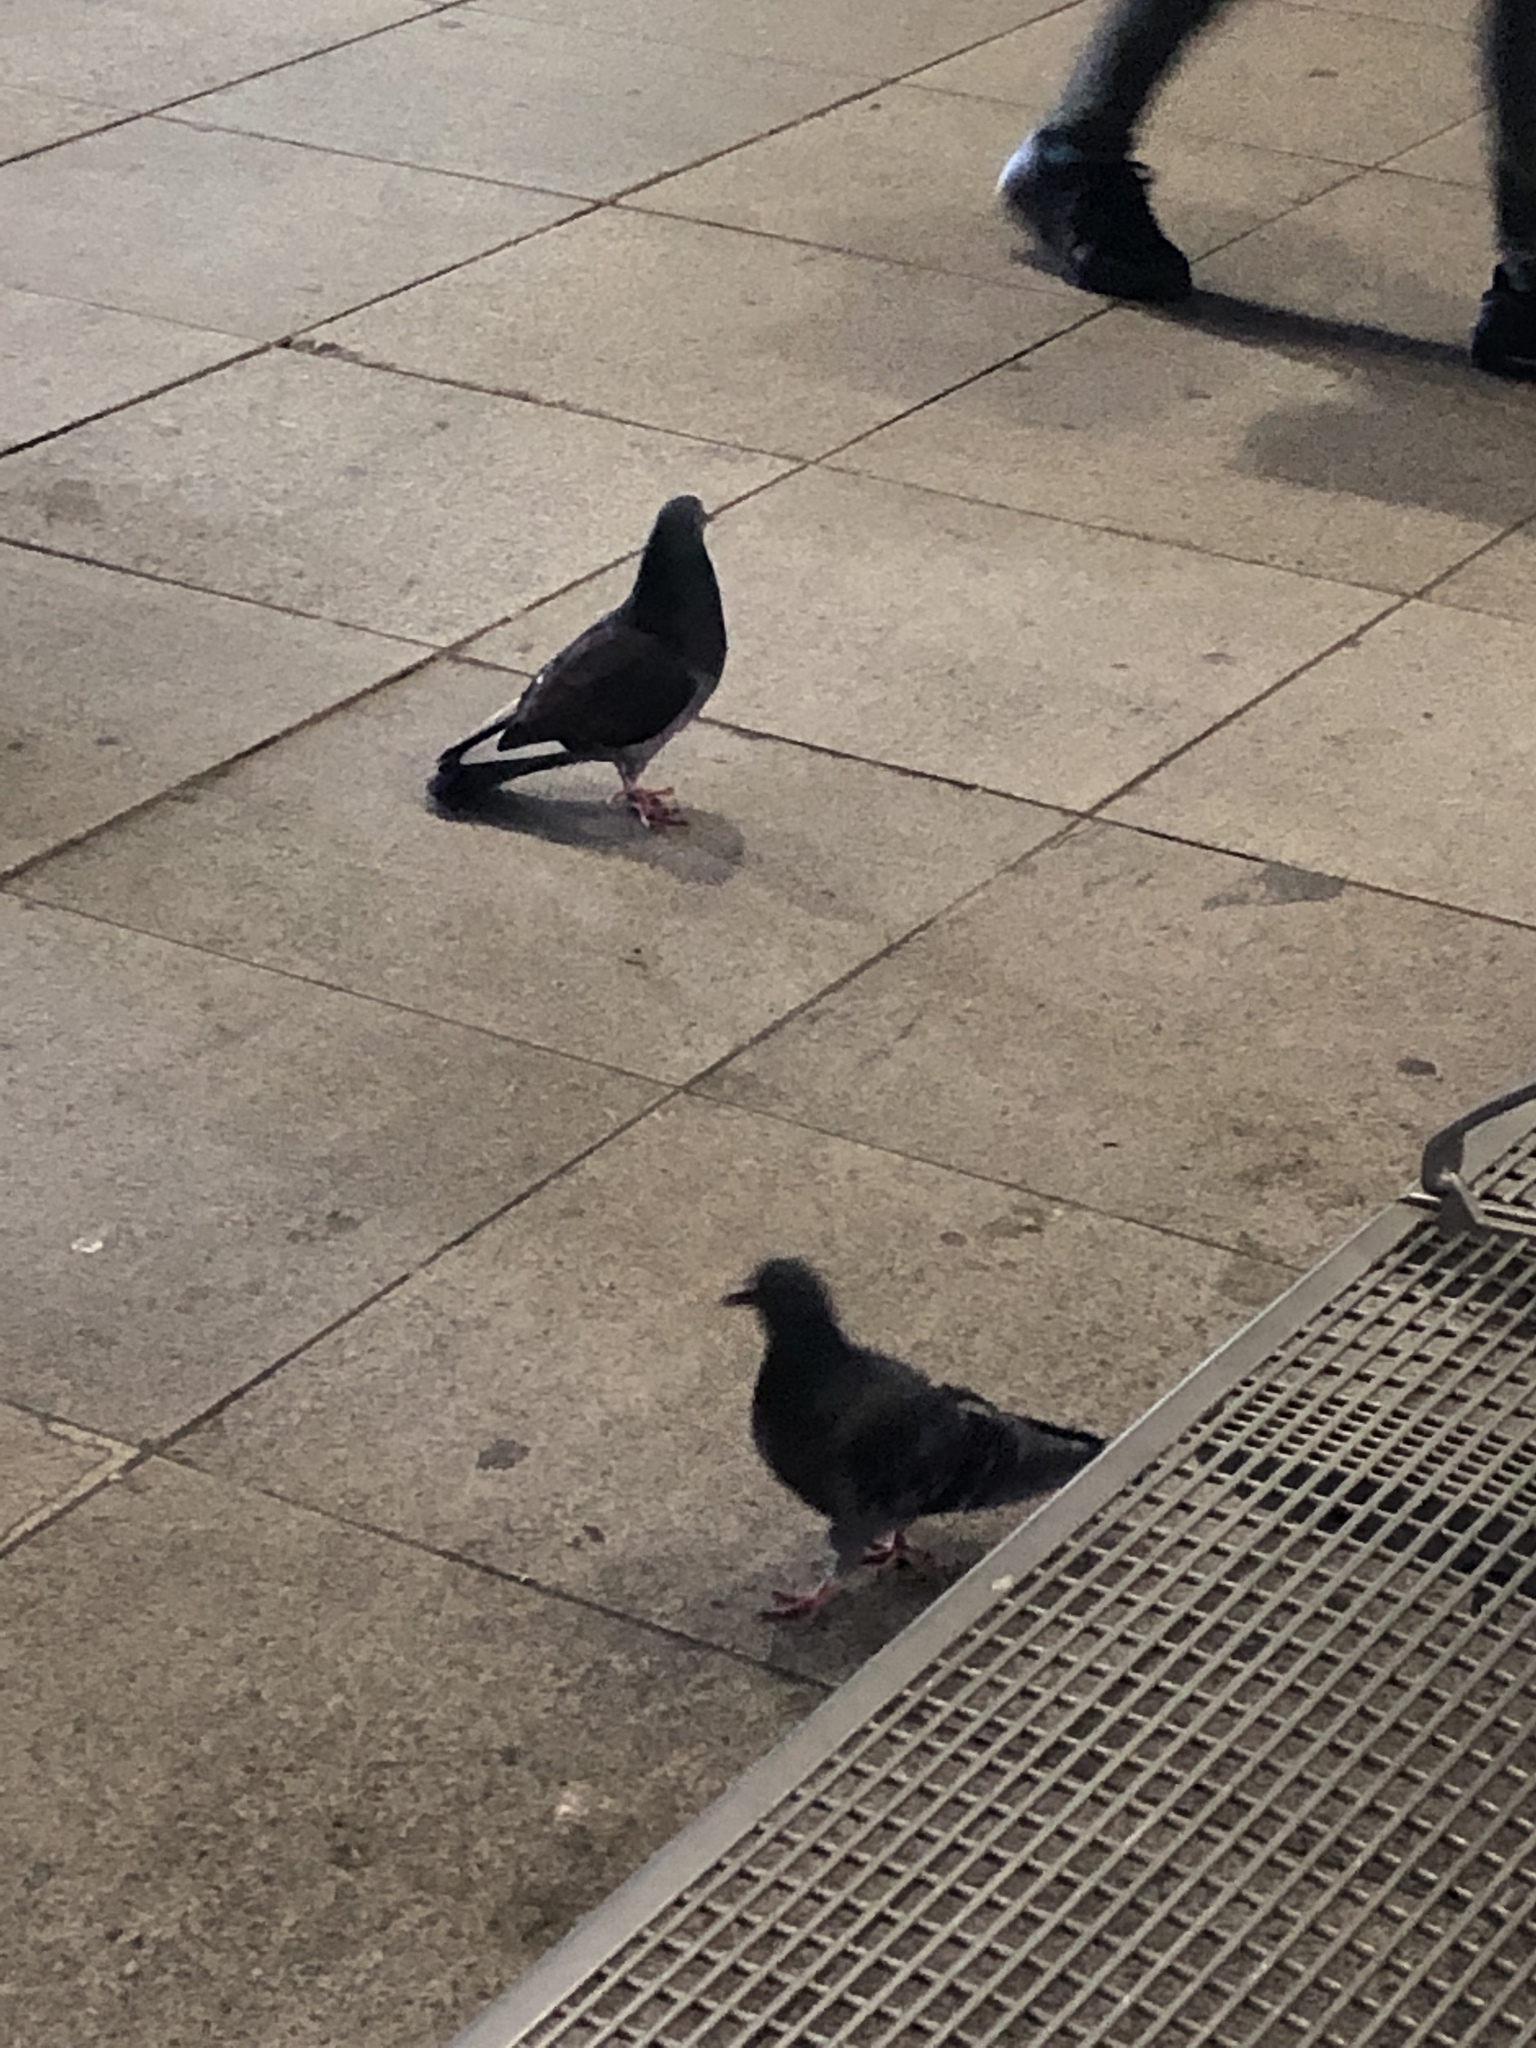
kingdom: Animalia
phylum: Chordata
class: Aves
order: Columbiformes
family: Columbidae
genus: Columba
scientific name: Columba livia
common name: Rock pigeon
